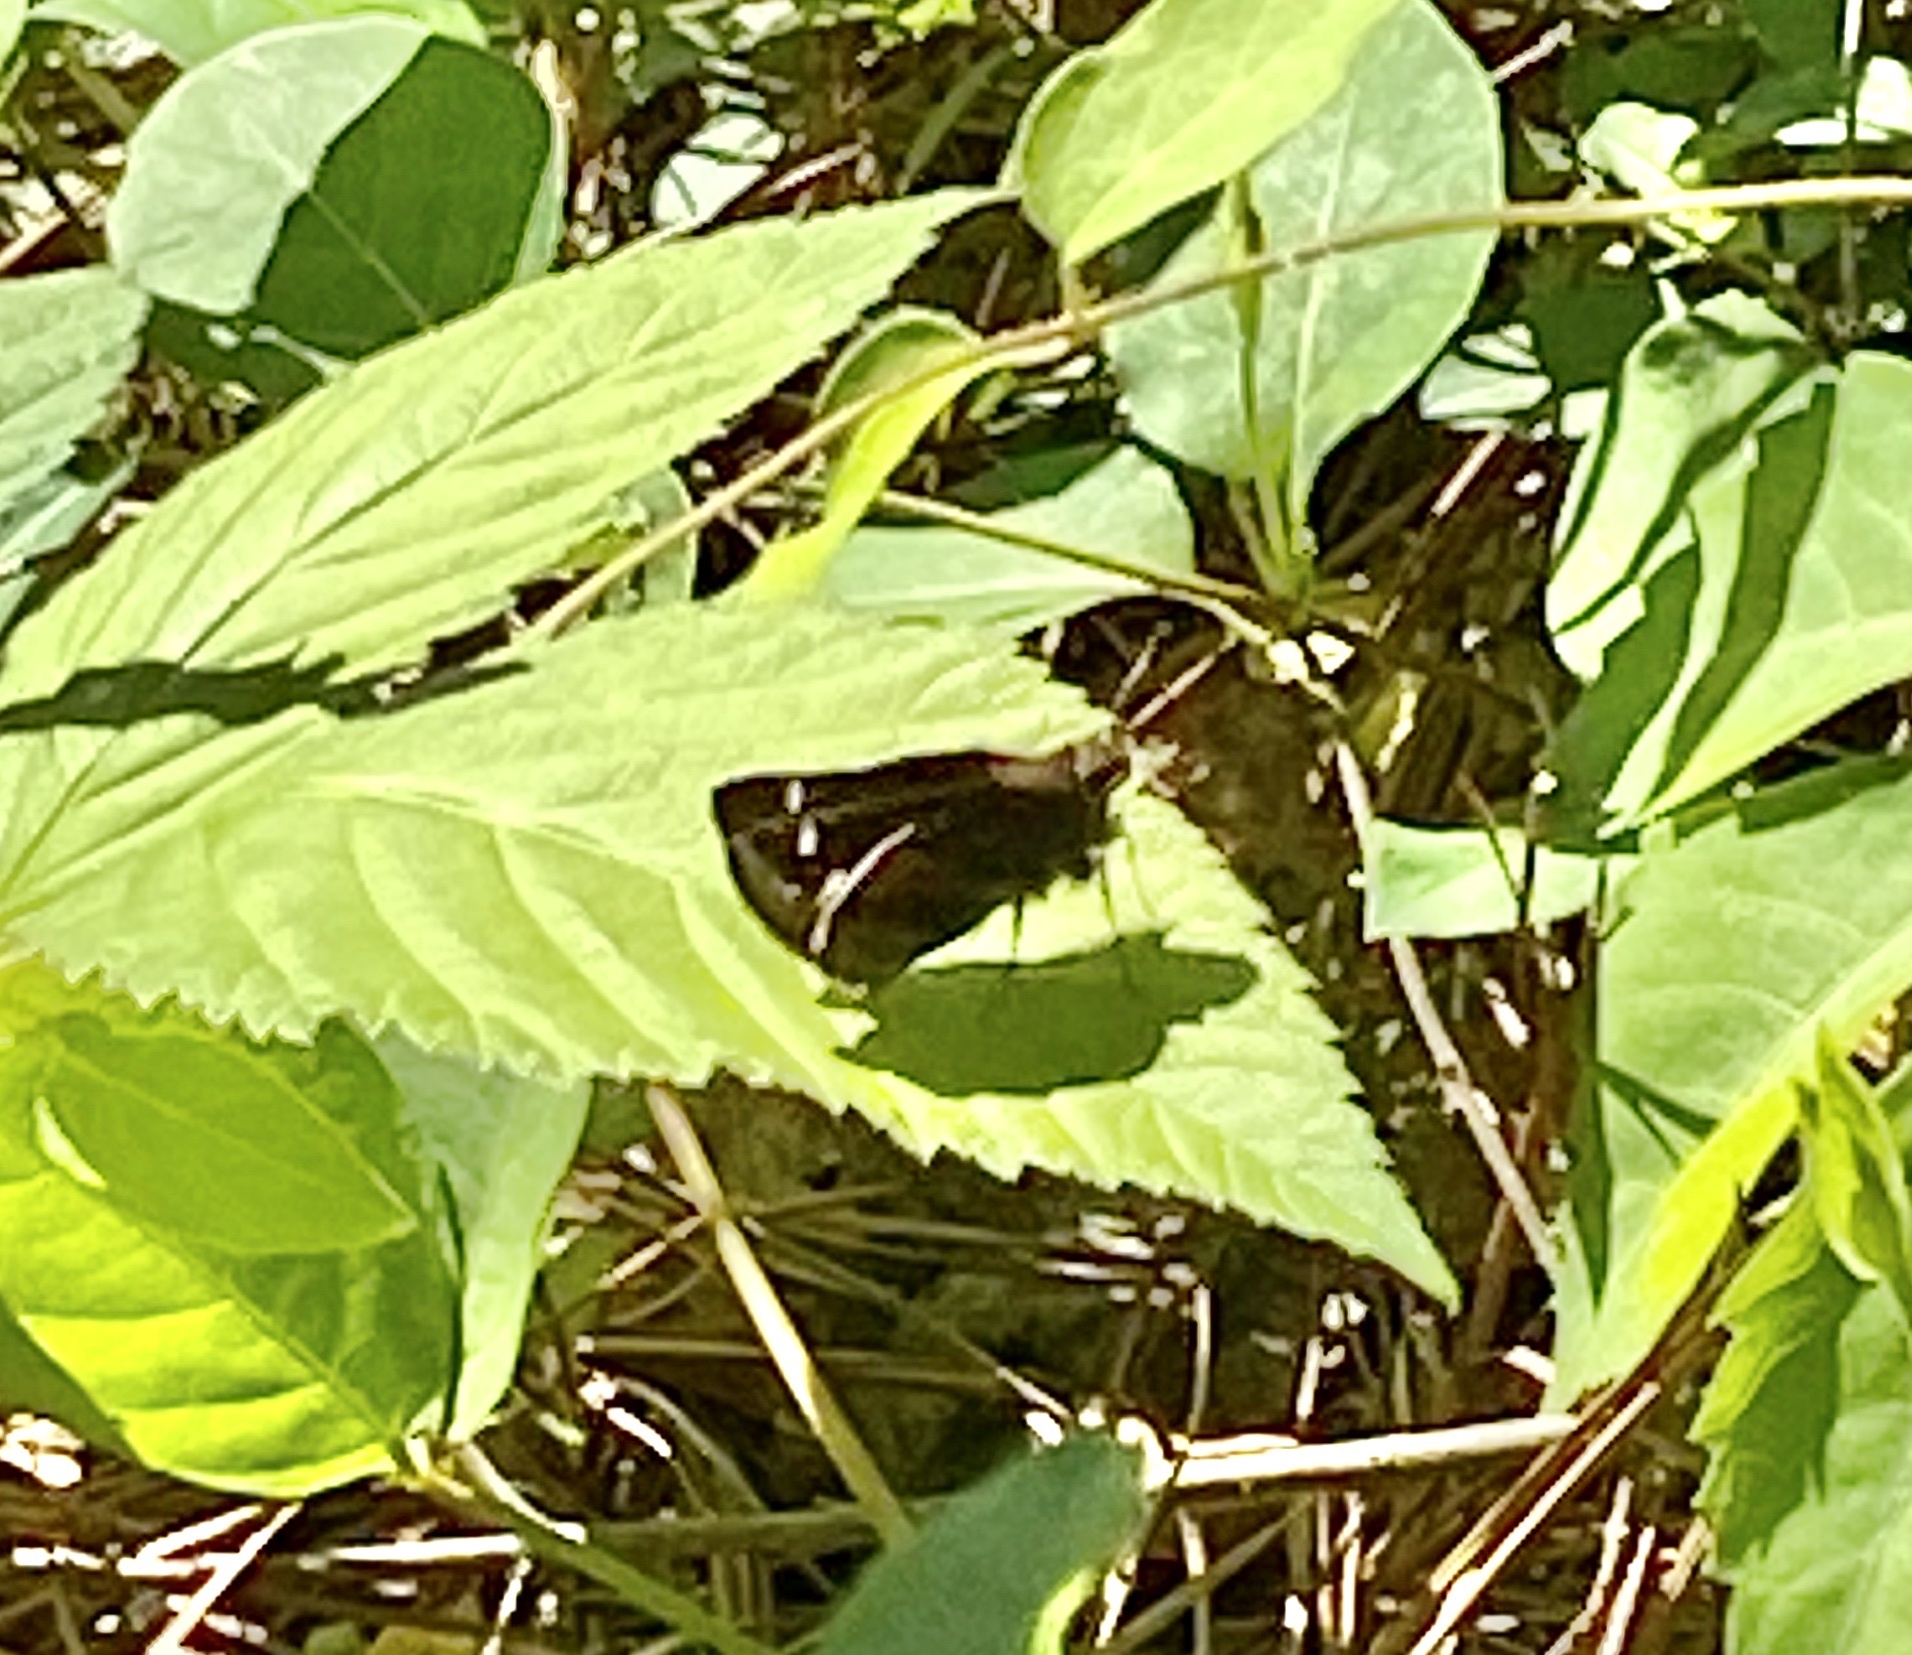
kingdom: Animalia
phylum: Arthropoda
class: Insecta
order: Lepidoptera
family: Hesperiidae
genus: Lon
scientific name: Lon zabulon
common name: Zabulon skipper
